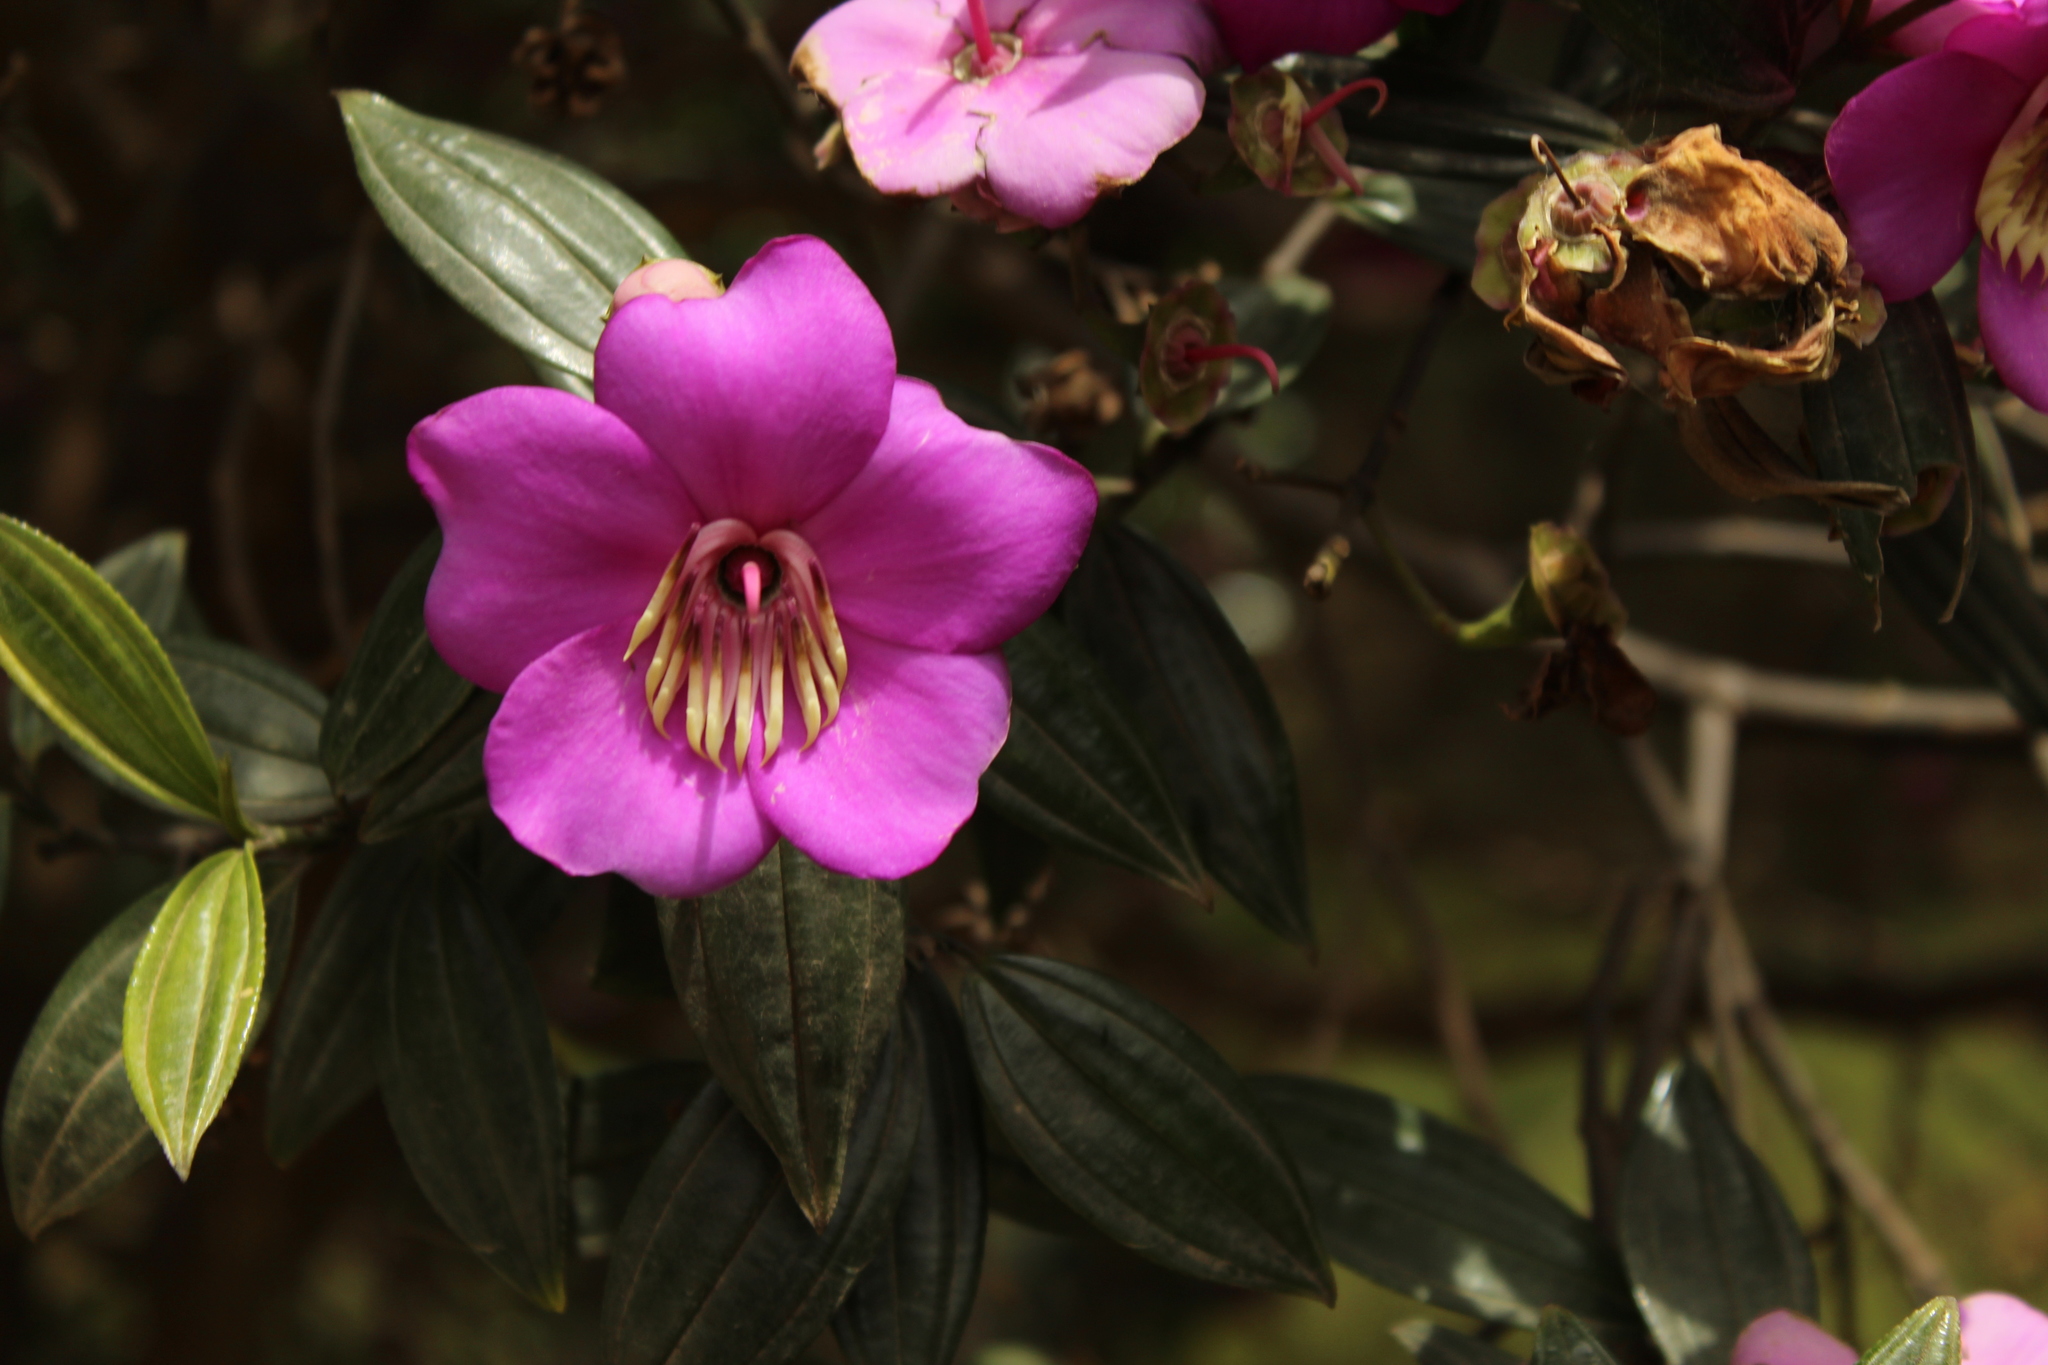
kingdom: Plantae
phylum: Tracheophyta
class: Magnoliopsida
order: Myrtales
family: Melastomataceae
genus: Meriania
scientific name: Meriania speciosa
